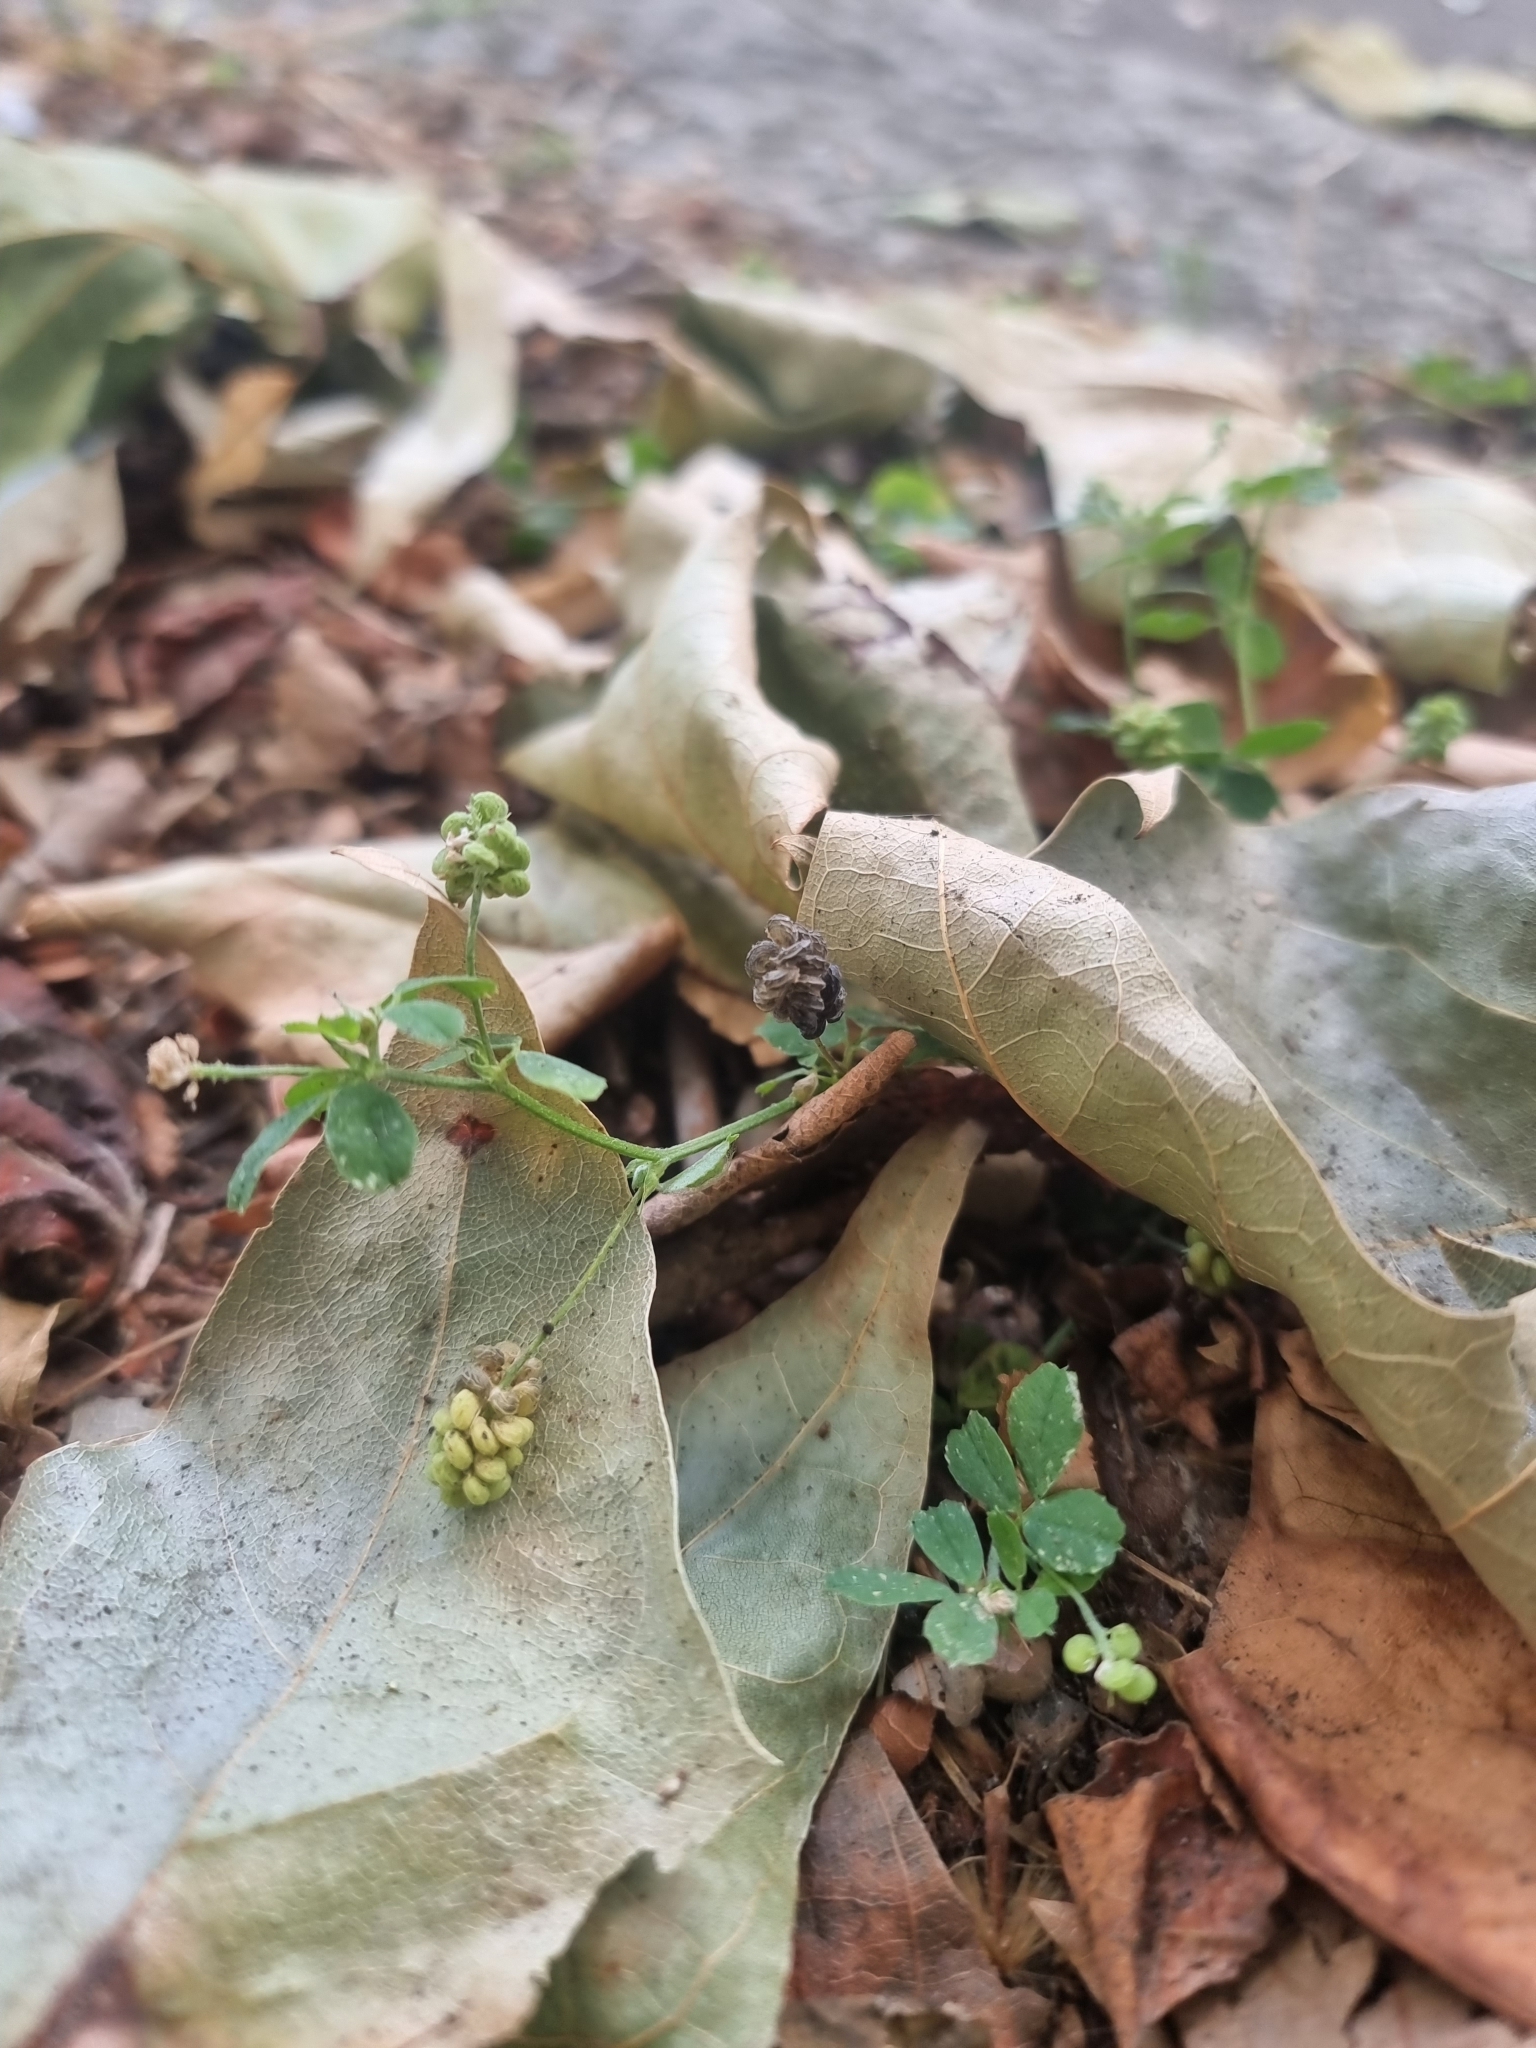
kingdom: Plantae
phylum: Tracheophyta
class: Magnoliopsida
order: Fabales
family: Fabaceae
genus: Medicago
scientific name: Medicago lupulina
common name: Black medick
